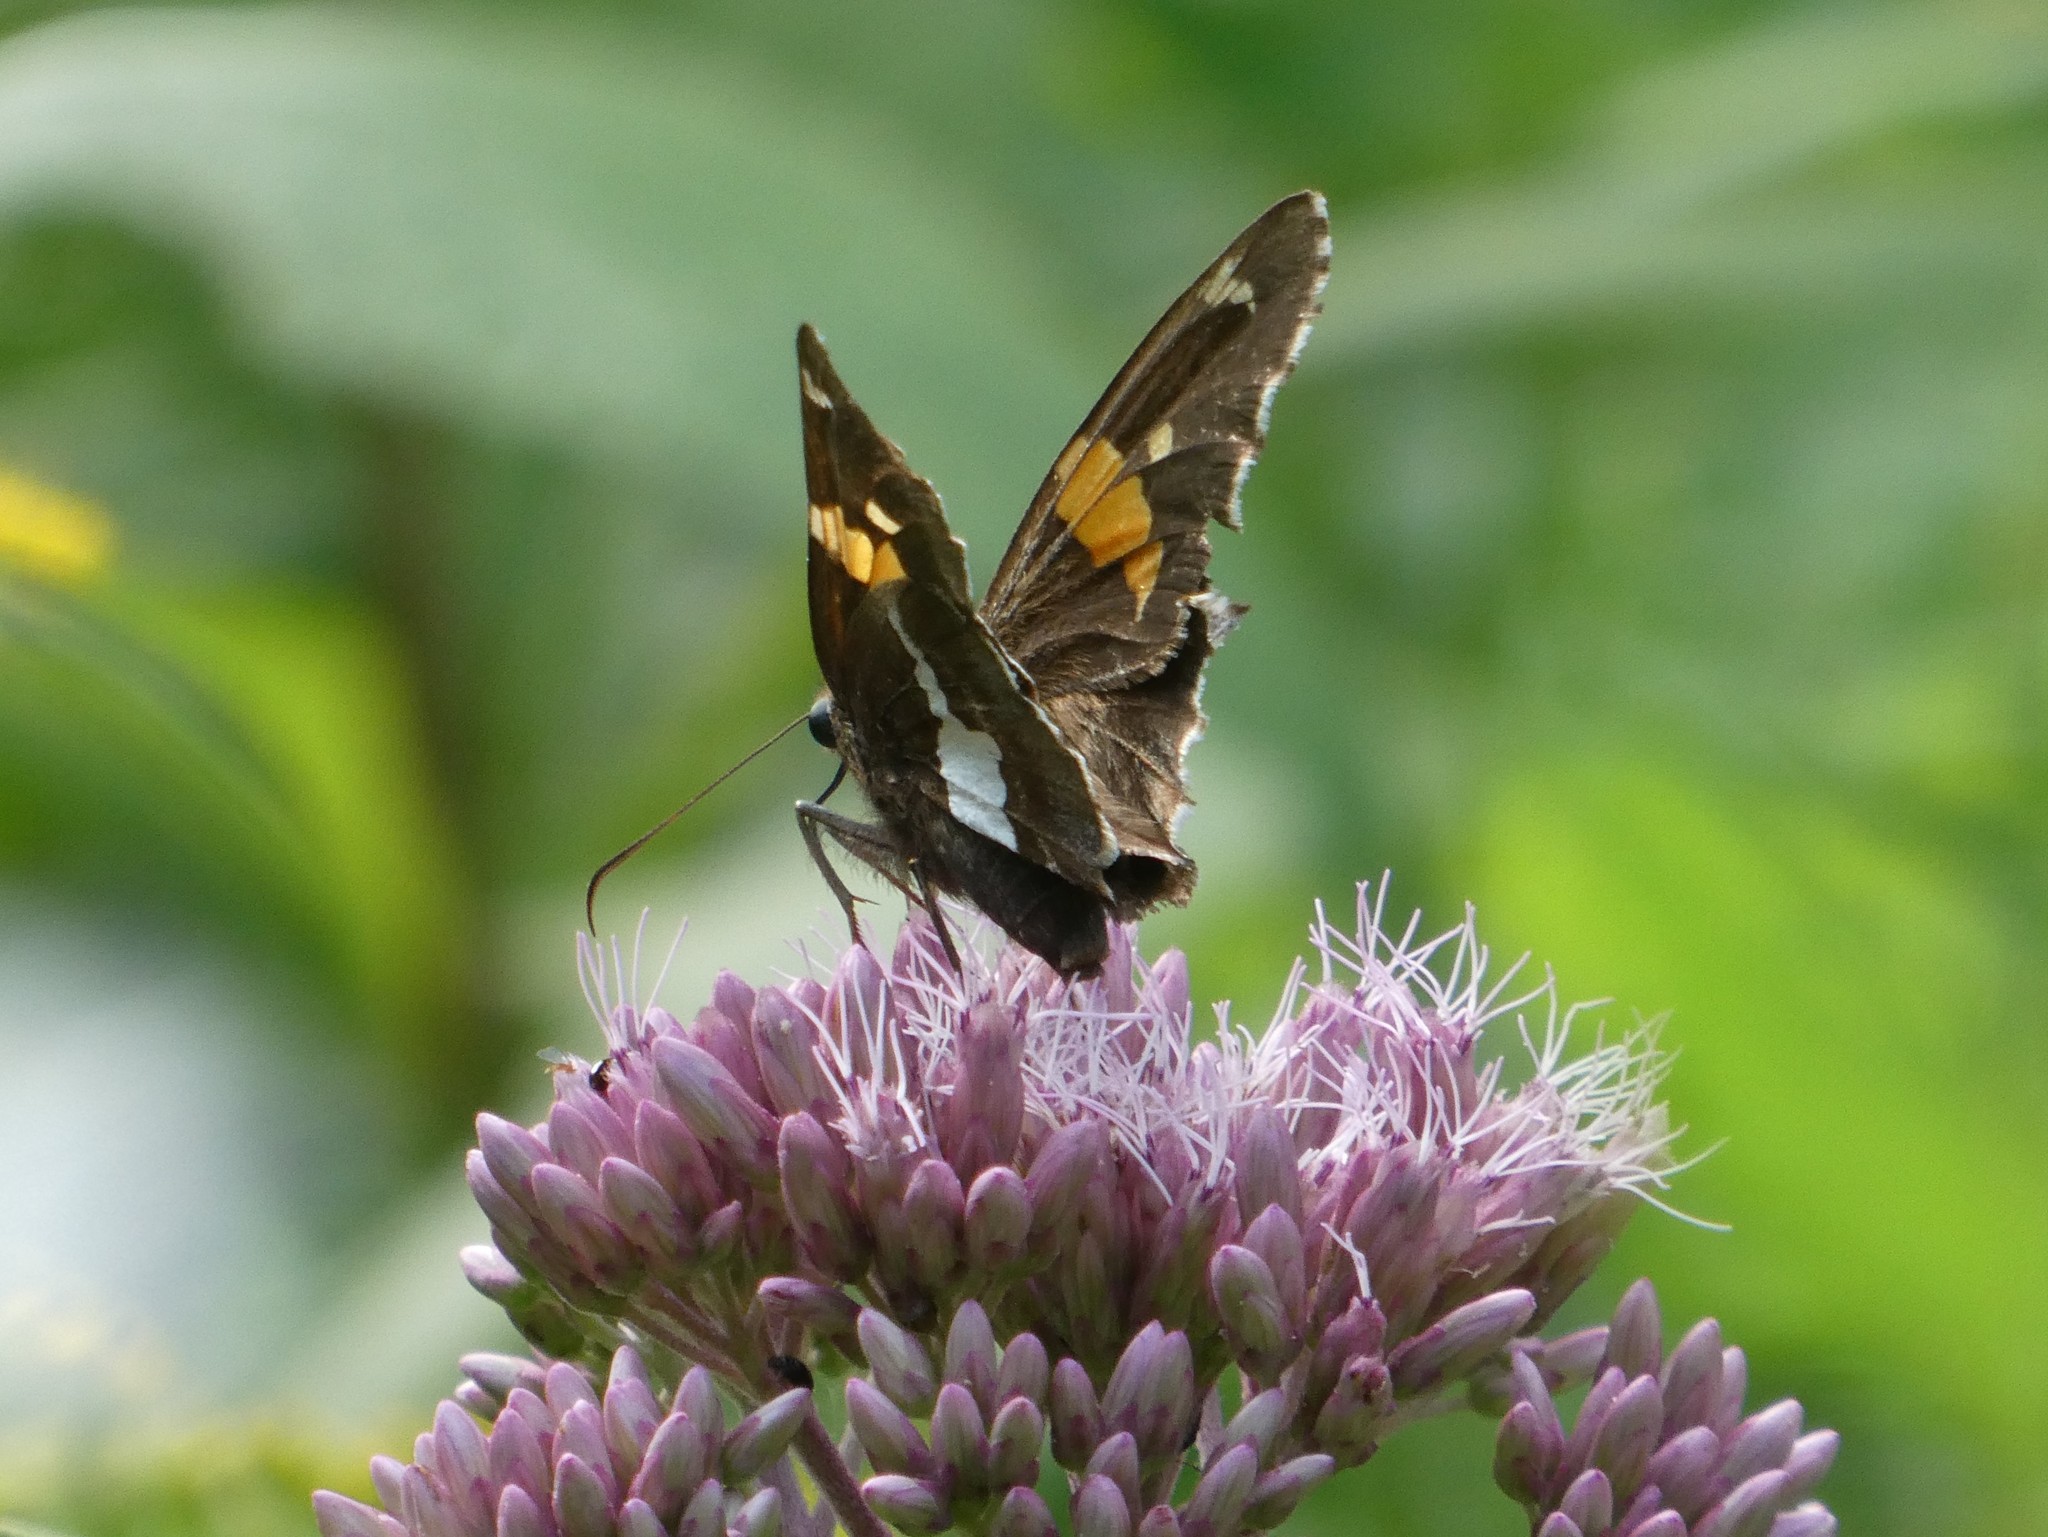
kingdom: Animalia
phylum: Arthropoda
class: Insecta
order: Lepidoptera
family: Hesperiidae
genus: Epargyreus
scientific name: Epargyreus clarus
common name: Silver-spotted skipper
